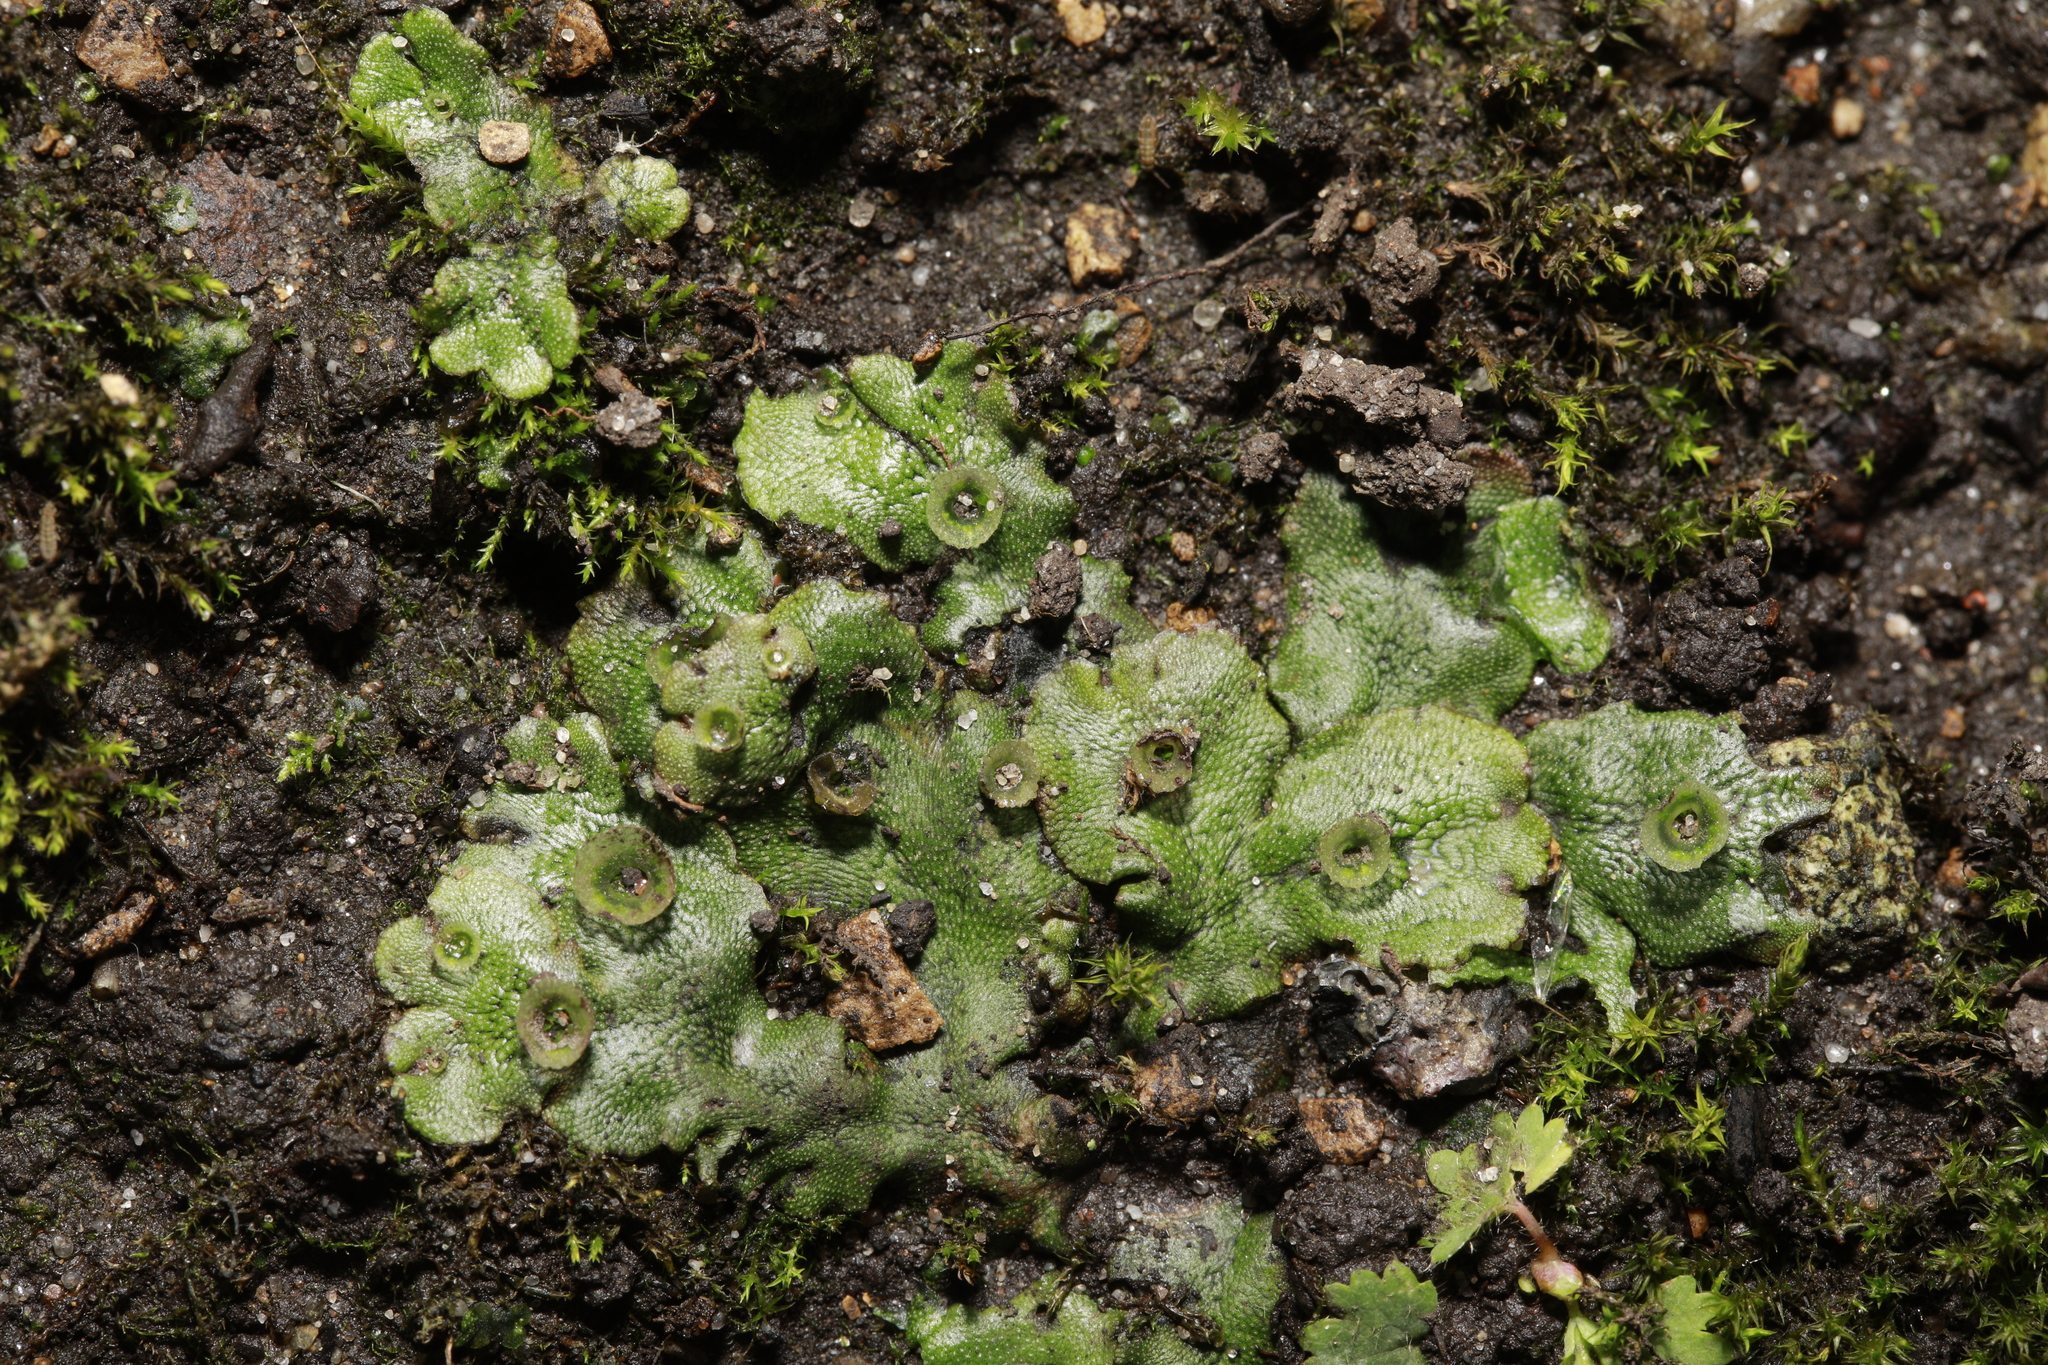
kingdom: Plantae
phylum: Marchantiophyta
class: Marchantiopsida
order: Marchantiales
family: Marchantiaceae
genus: Marchantia
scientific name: Marchantia polymorpha
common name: Common liverwort
